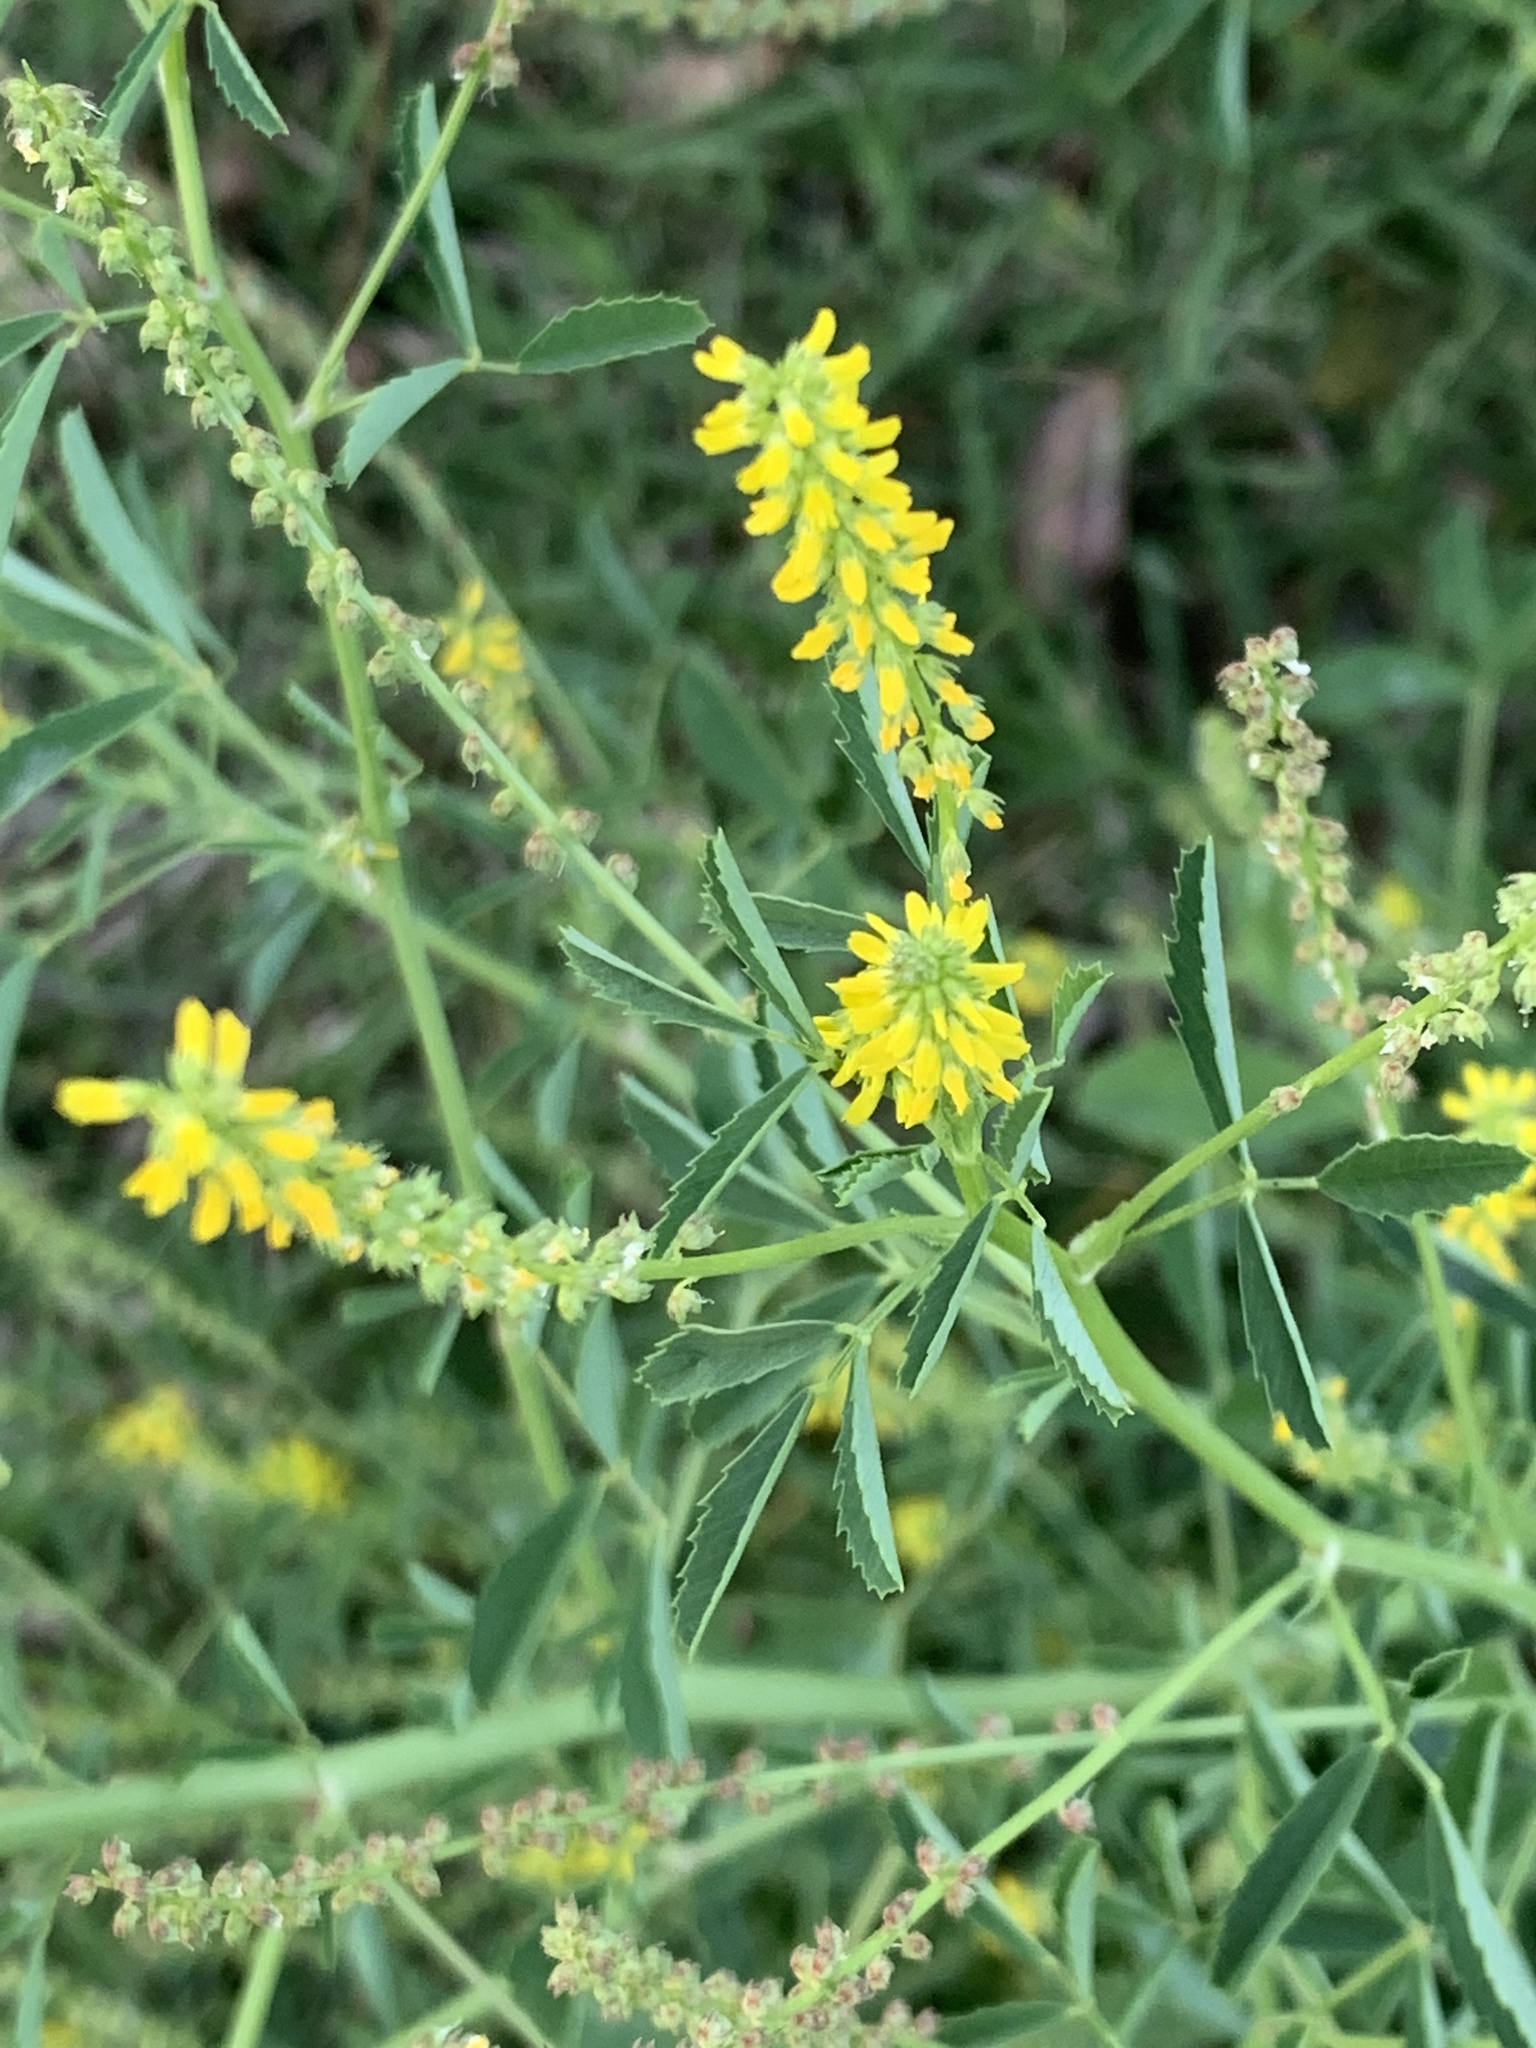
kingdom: Plantae
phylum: Tracheophyta
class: Magnoliopsida
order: Fabales
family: Fabaceae
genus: Melilotus
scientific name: Melilotus indicus
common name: Small melilot
